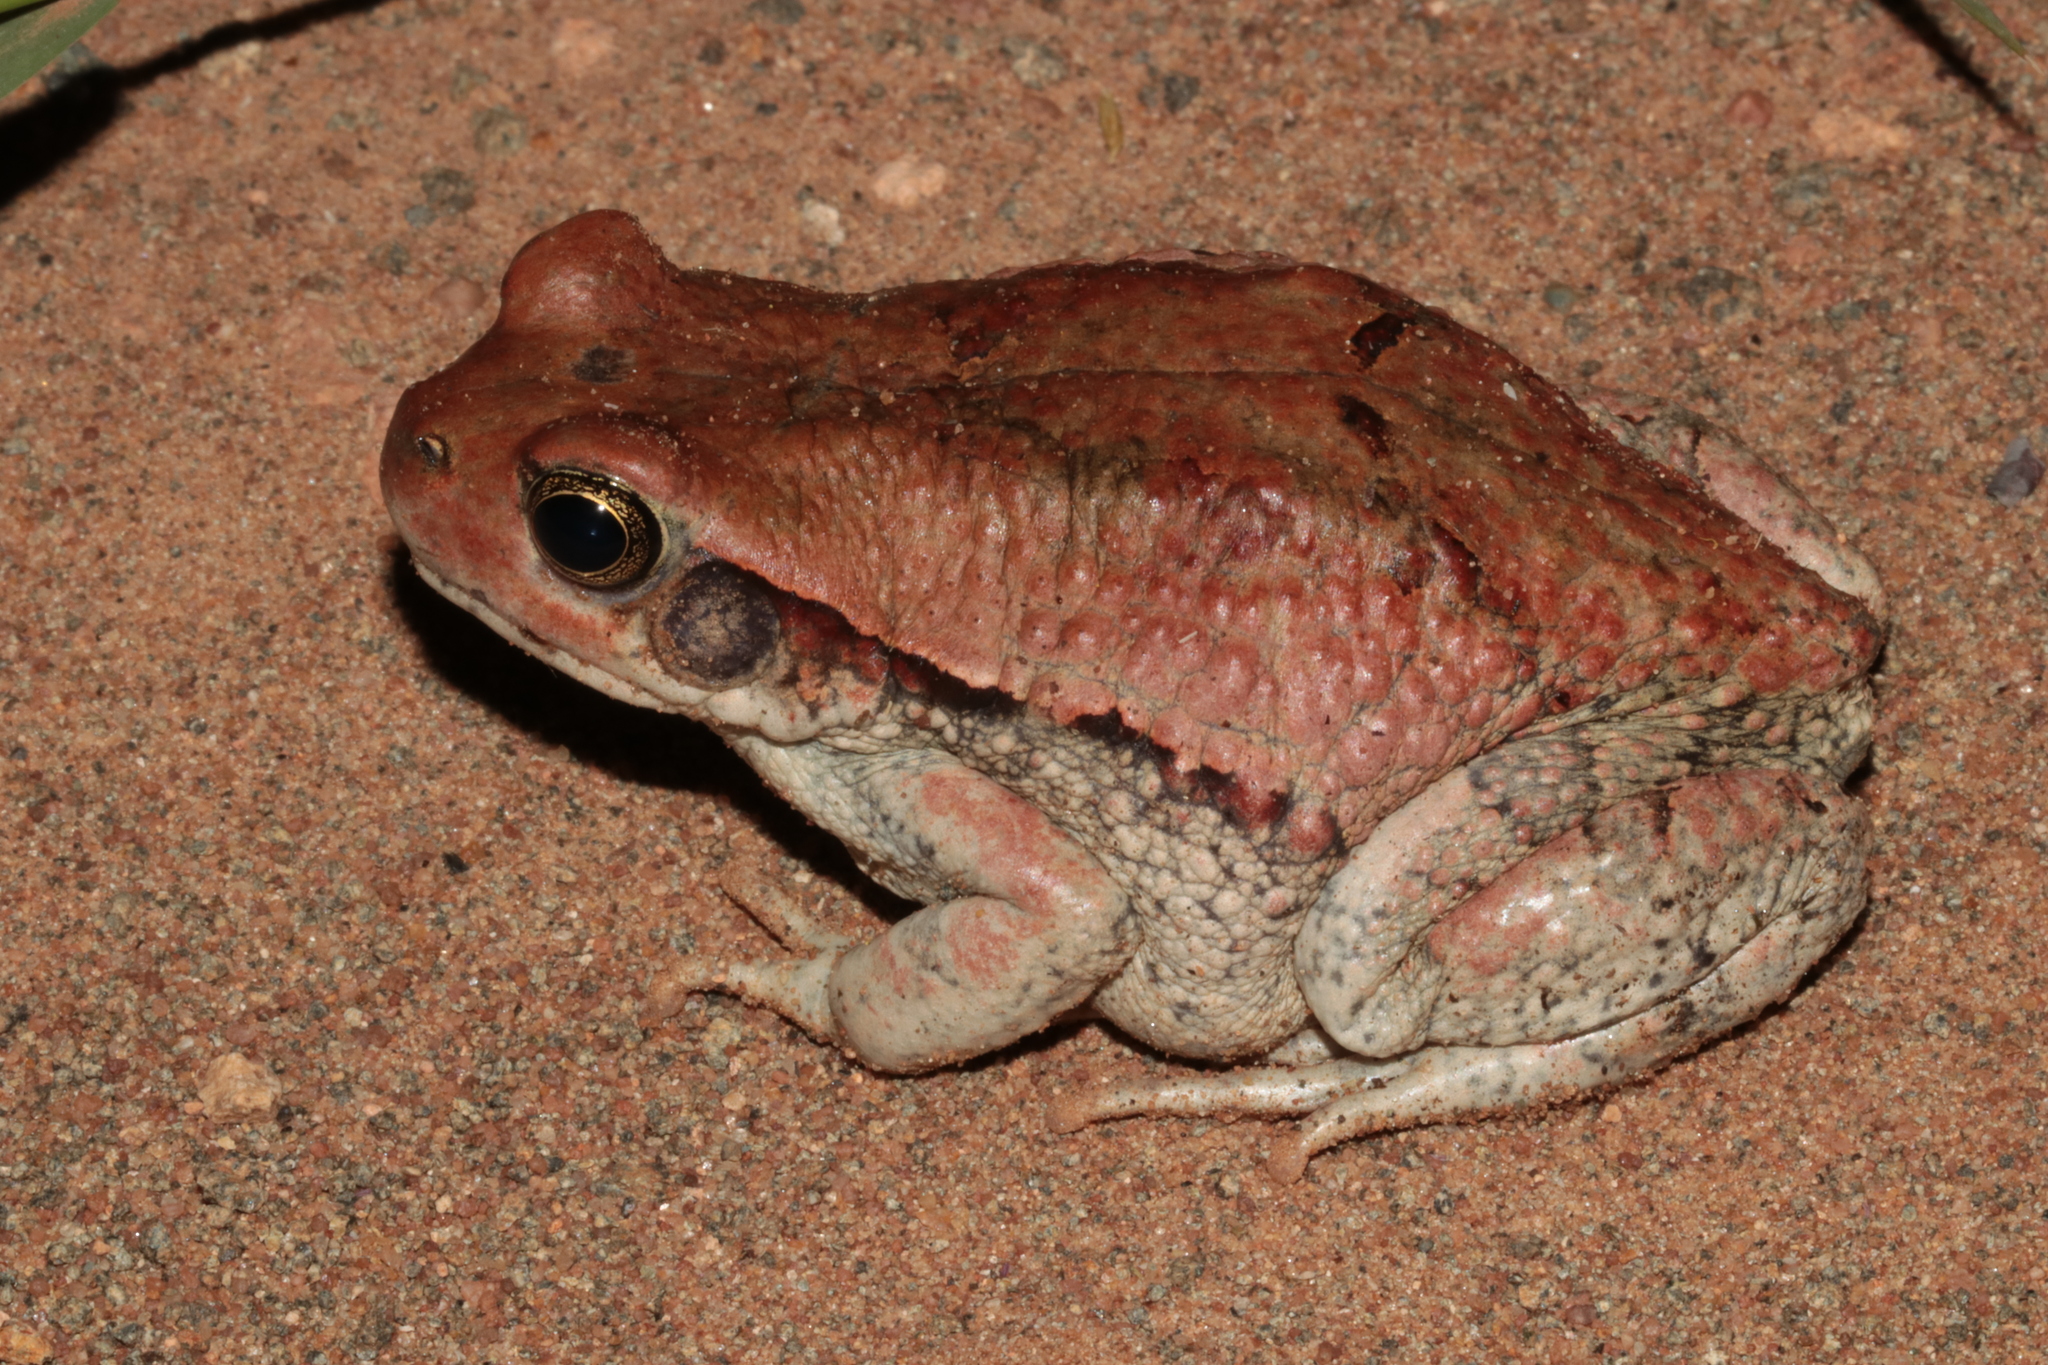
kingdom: Animalia
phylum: Chordata
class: Amphibia
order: Anura
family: Bufonidae
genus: Schismaderma
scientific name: Schismaderma carens
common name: African split-skin toad
